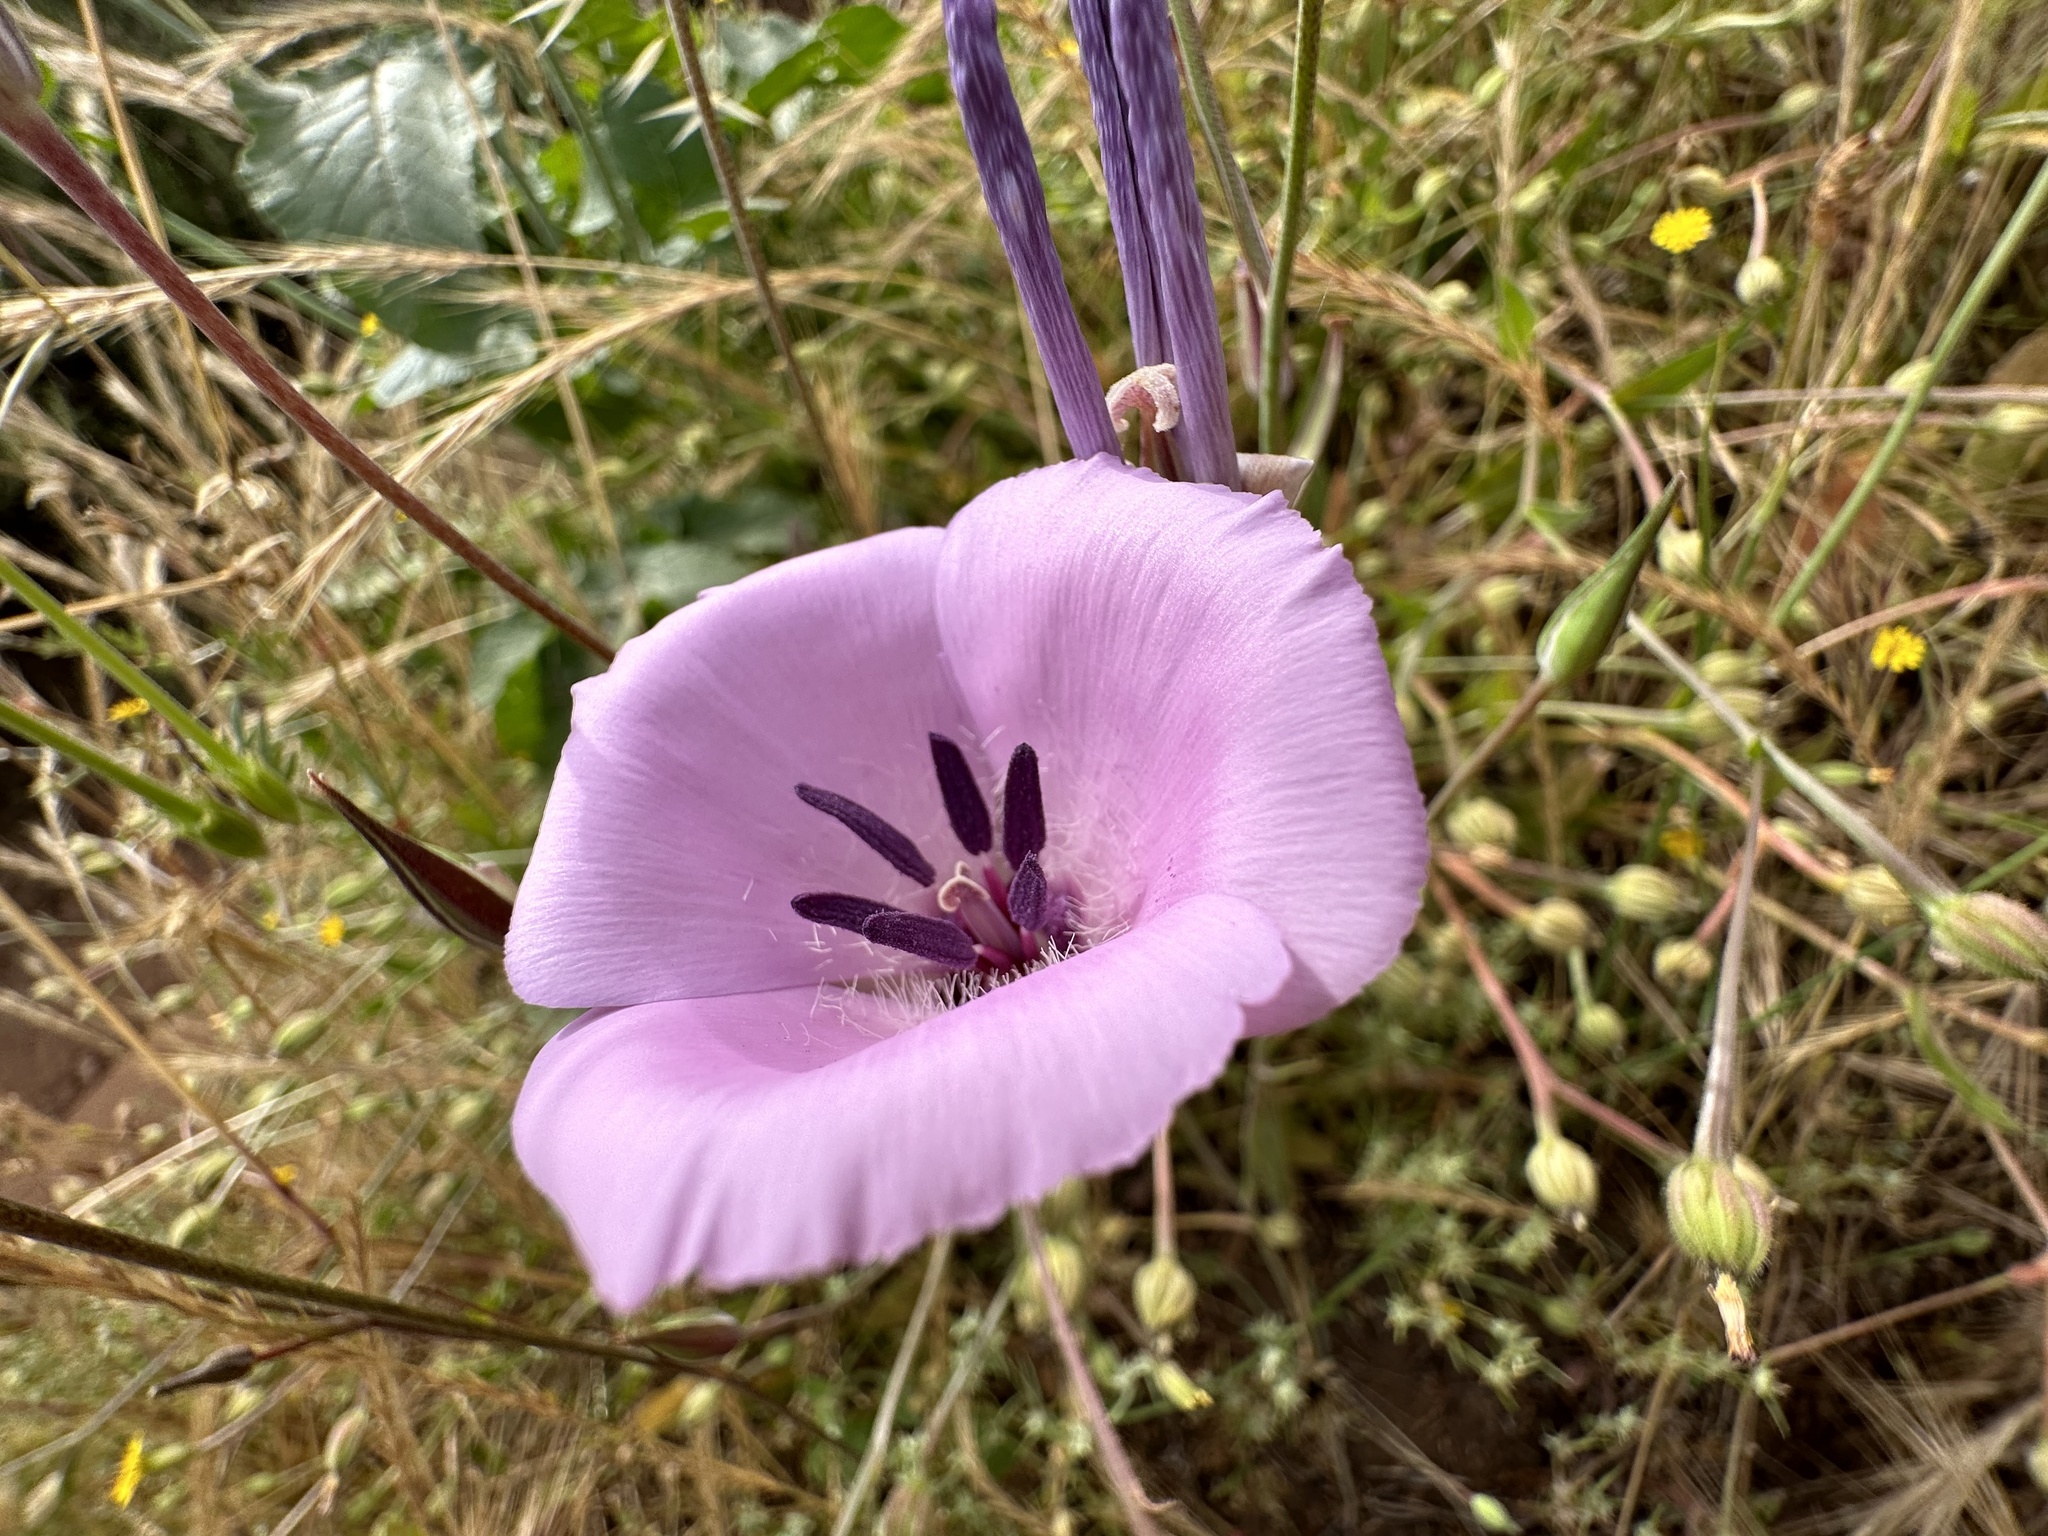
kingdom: Plantae
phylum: Tracheophyta
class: Liliopsida
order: Liliales
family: Liliaceae
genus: Calochortus
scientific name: Calochortus splendens
